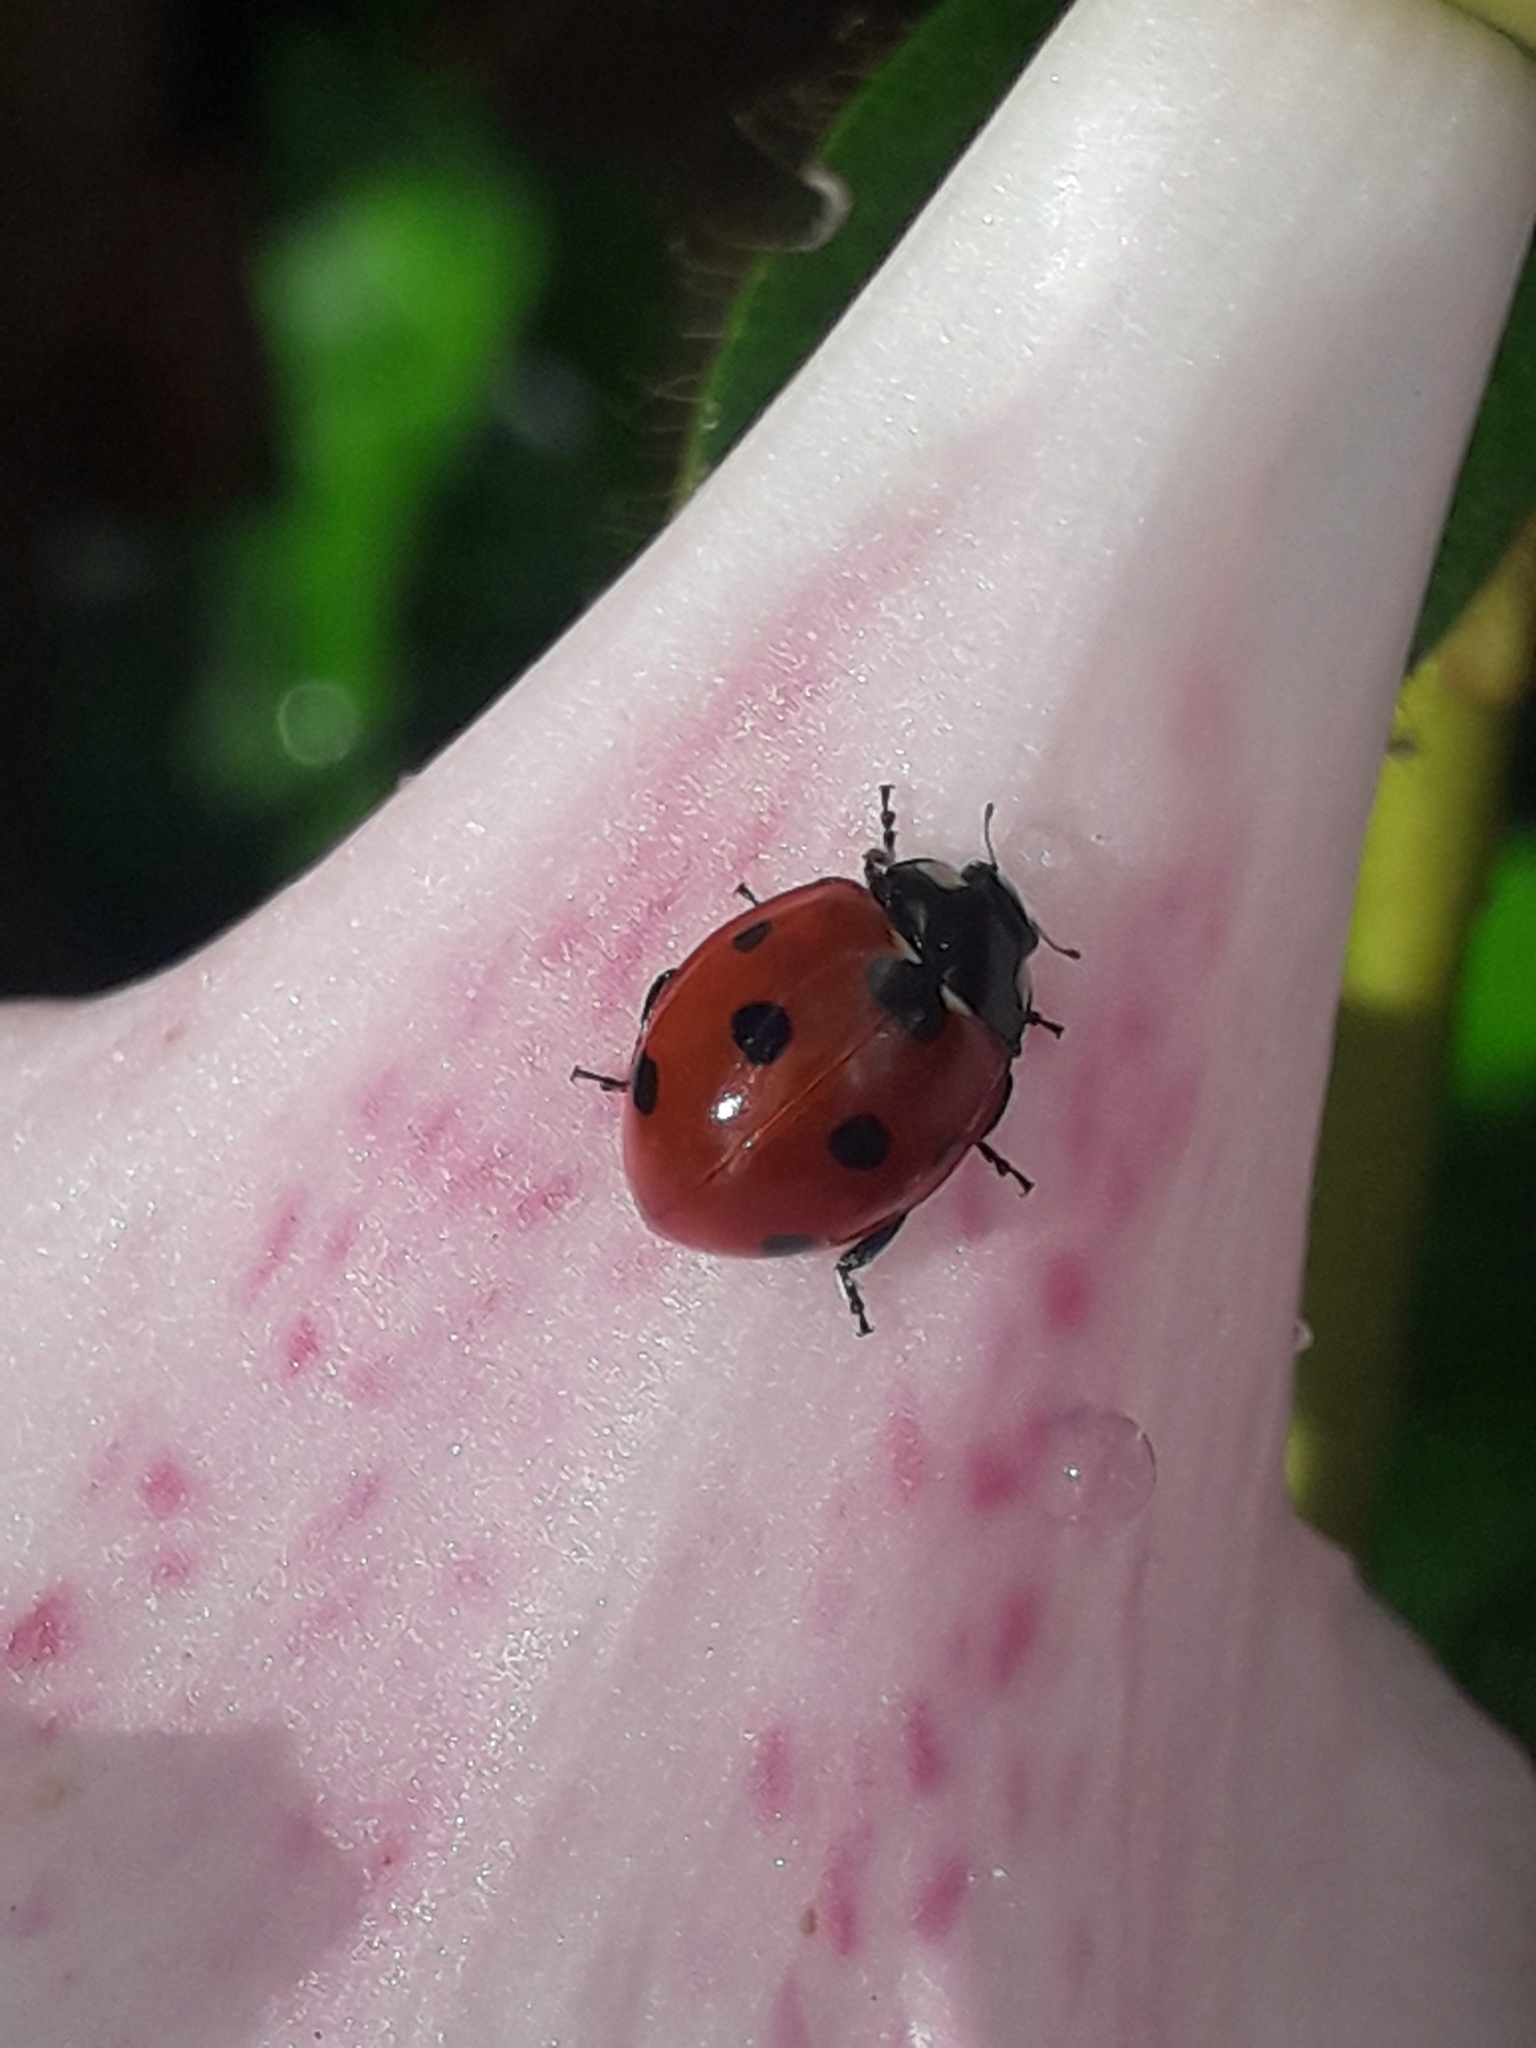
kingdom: Animalia
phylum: Arthropoda
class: Insecta
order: Coleoptera
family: Coccinellidae
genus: Coccinella
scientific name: Coccinella septempunctata
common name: Sevenspotted lady beetle
